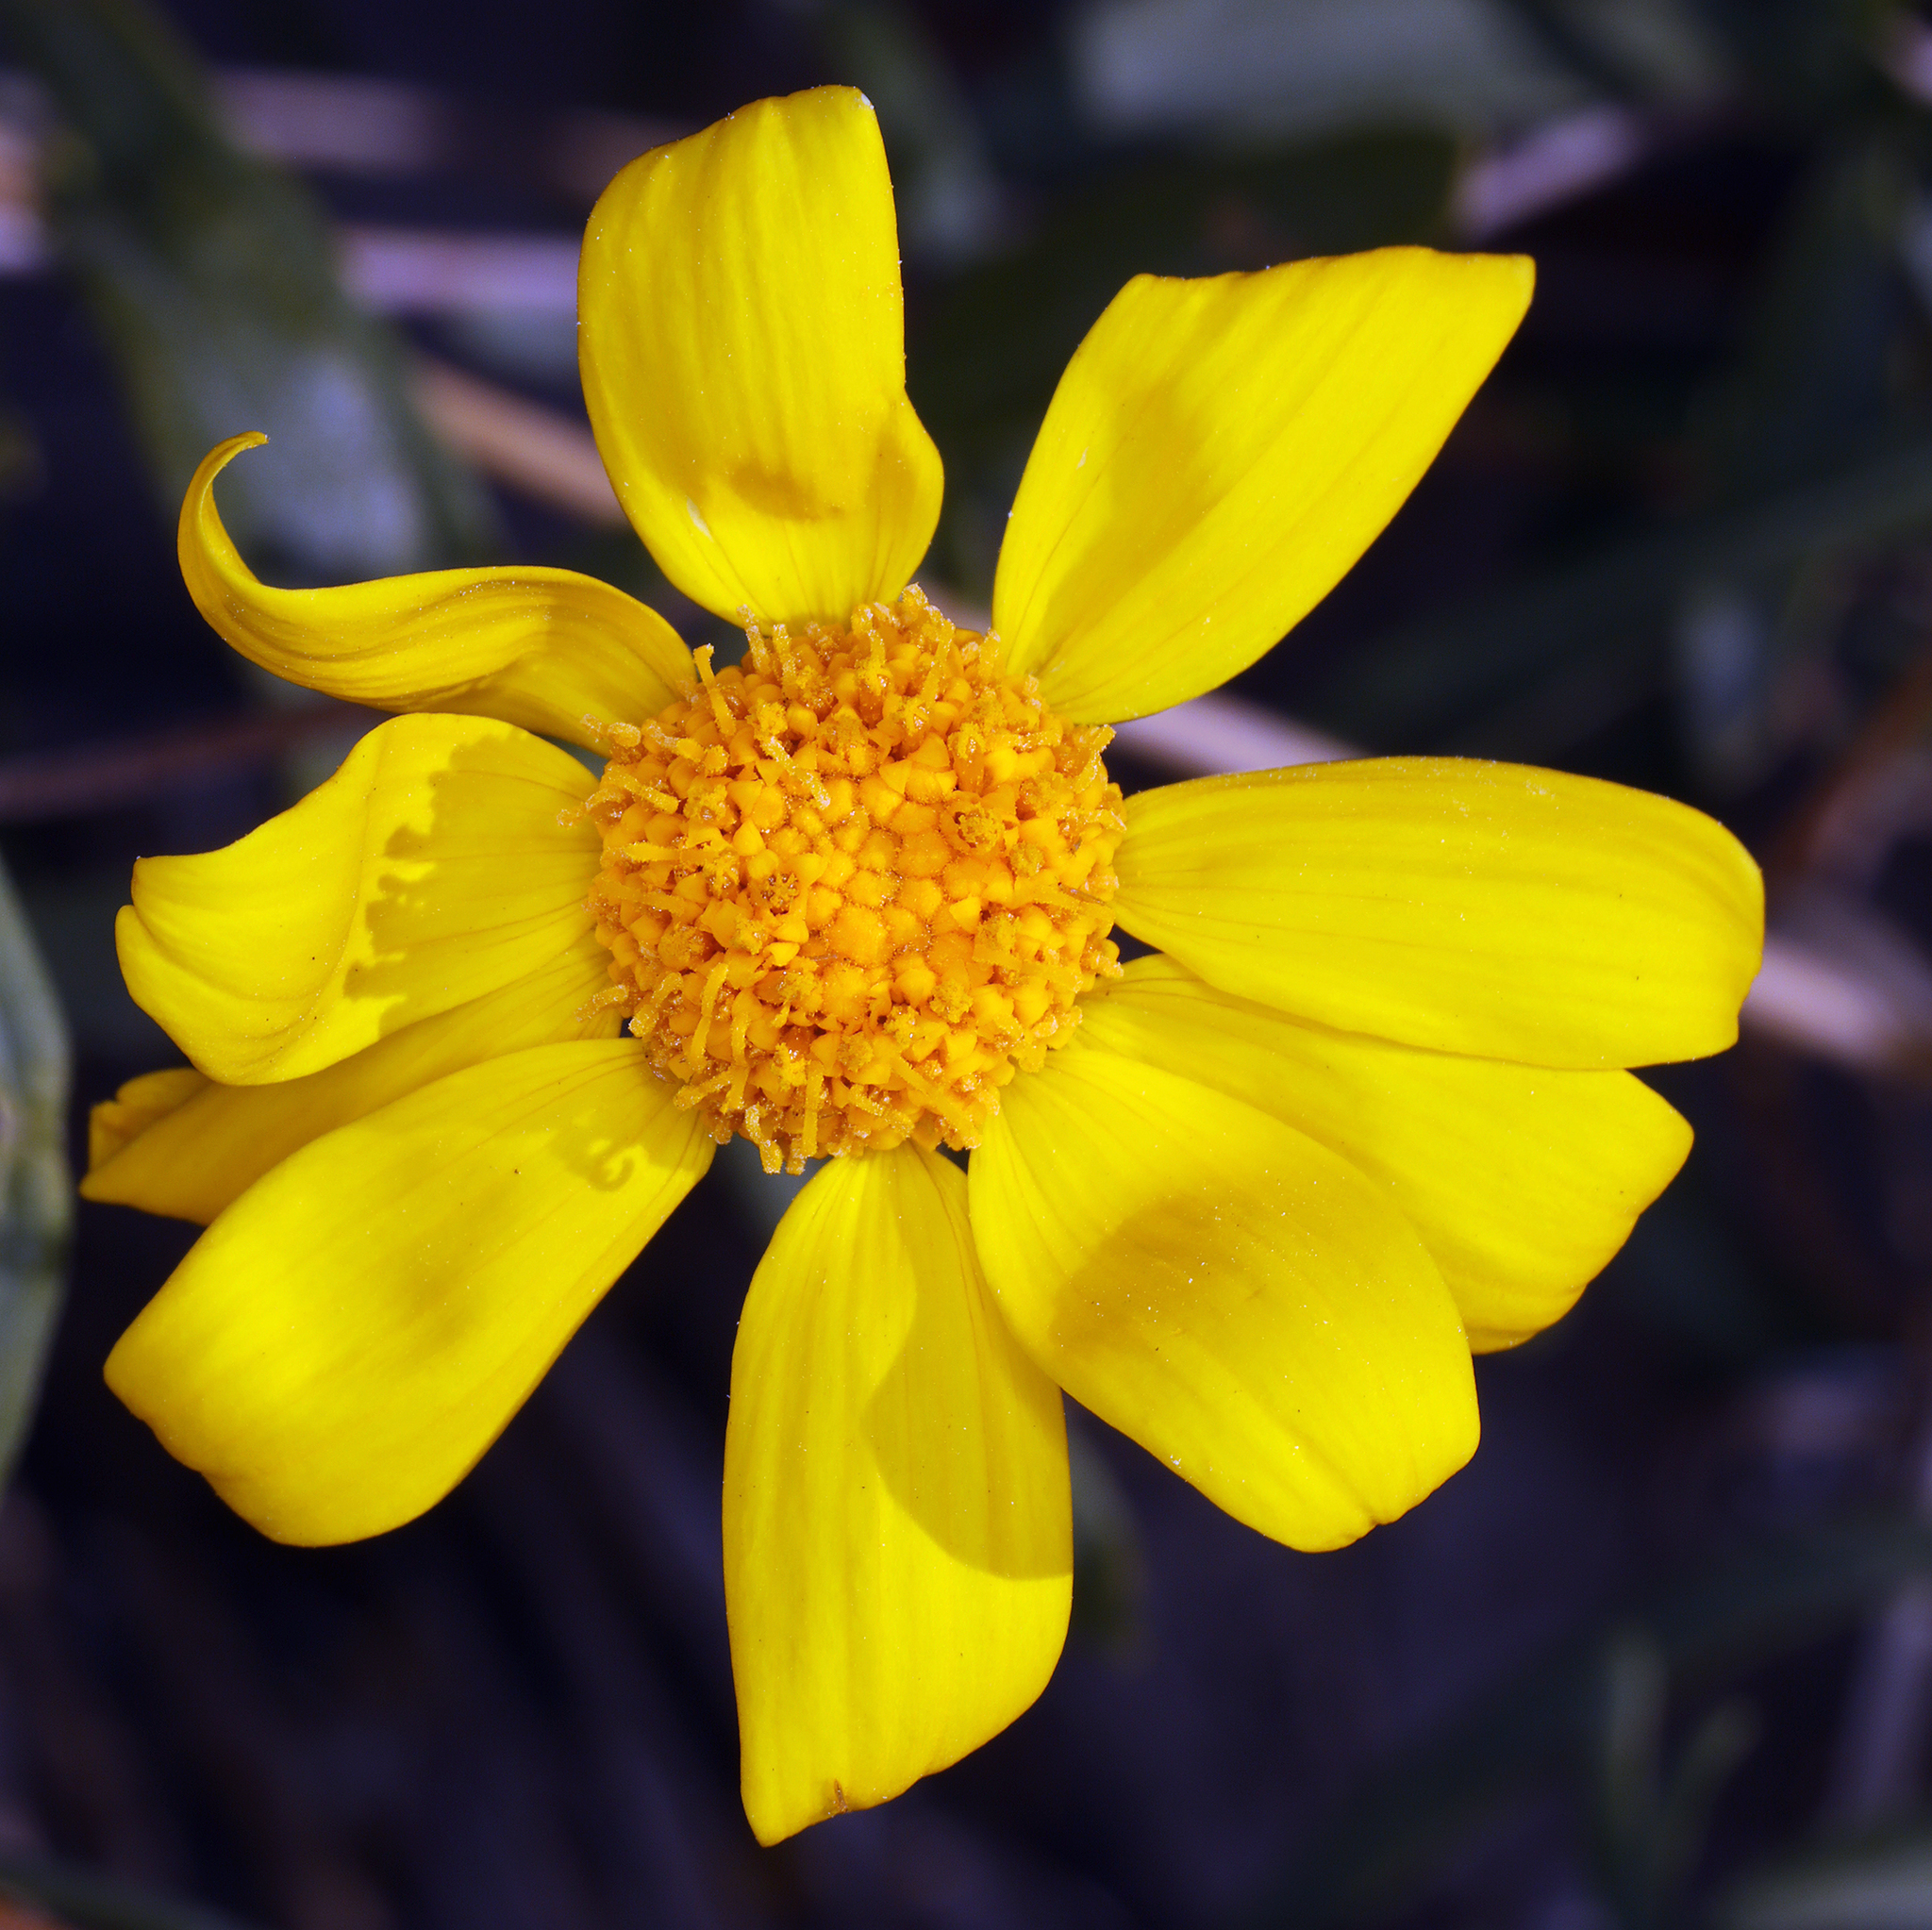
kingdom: Plantae
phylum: Tracheophyta
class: Magnoliopsida
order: Asterales
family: Asteraceae
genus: Heliomeris
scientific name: Heliomeris multiflora
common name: Showy goldeneye
